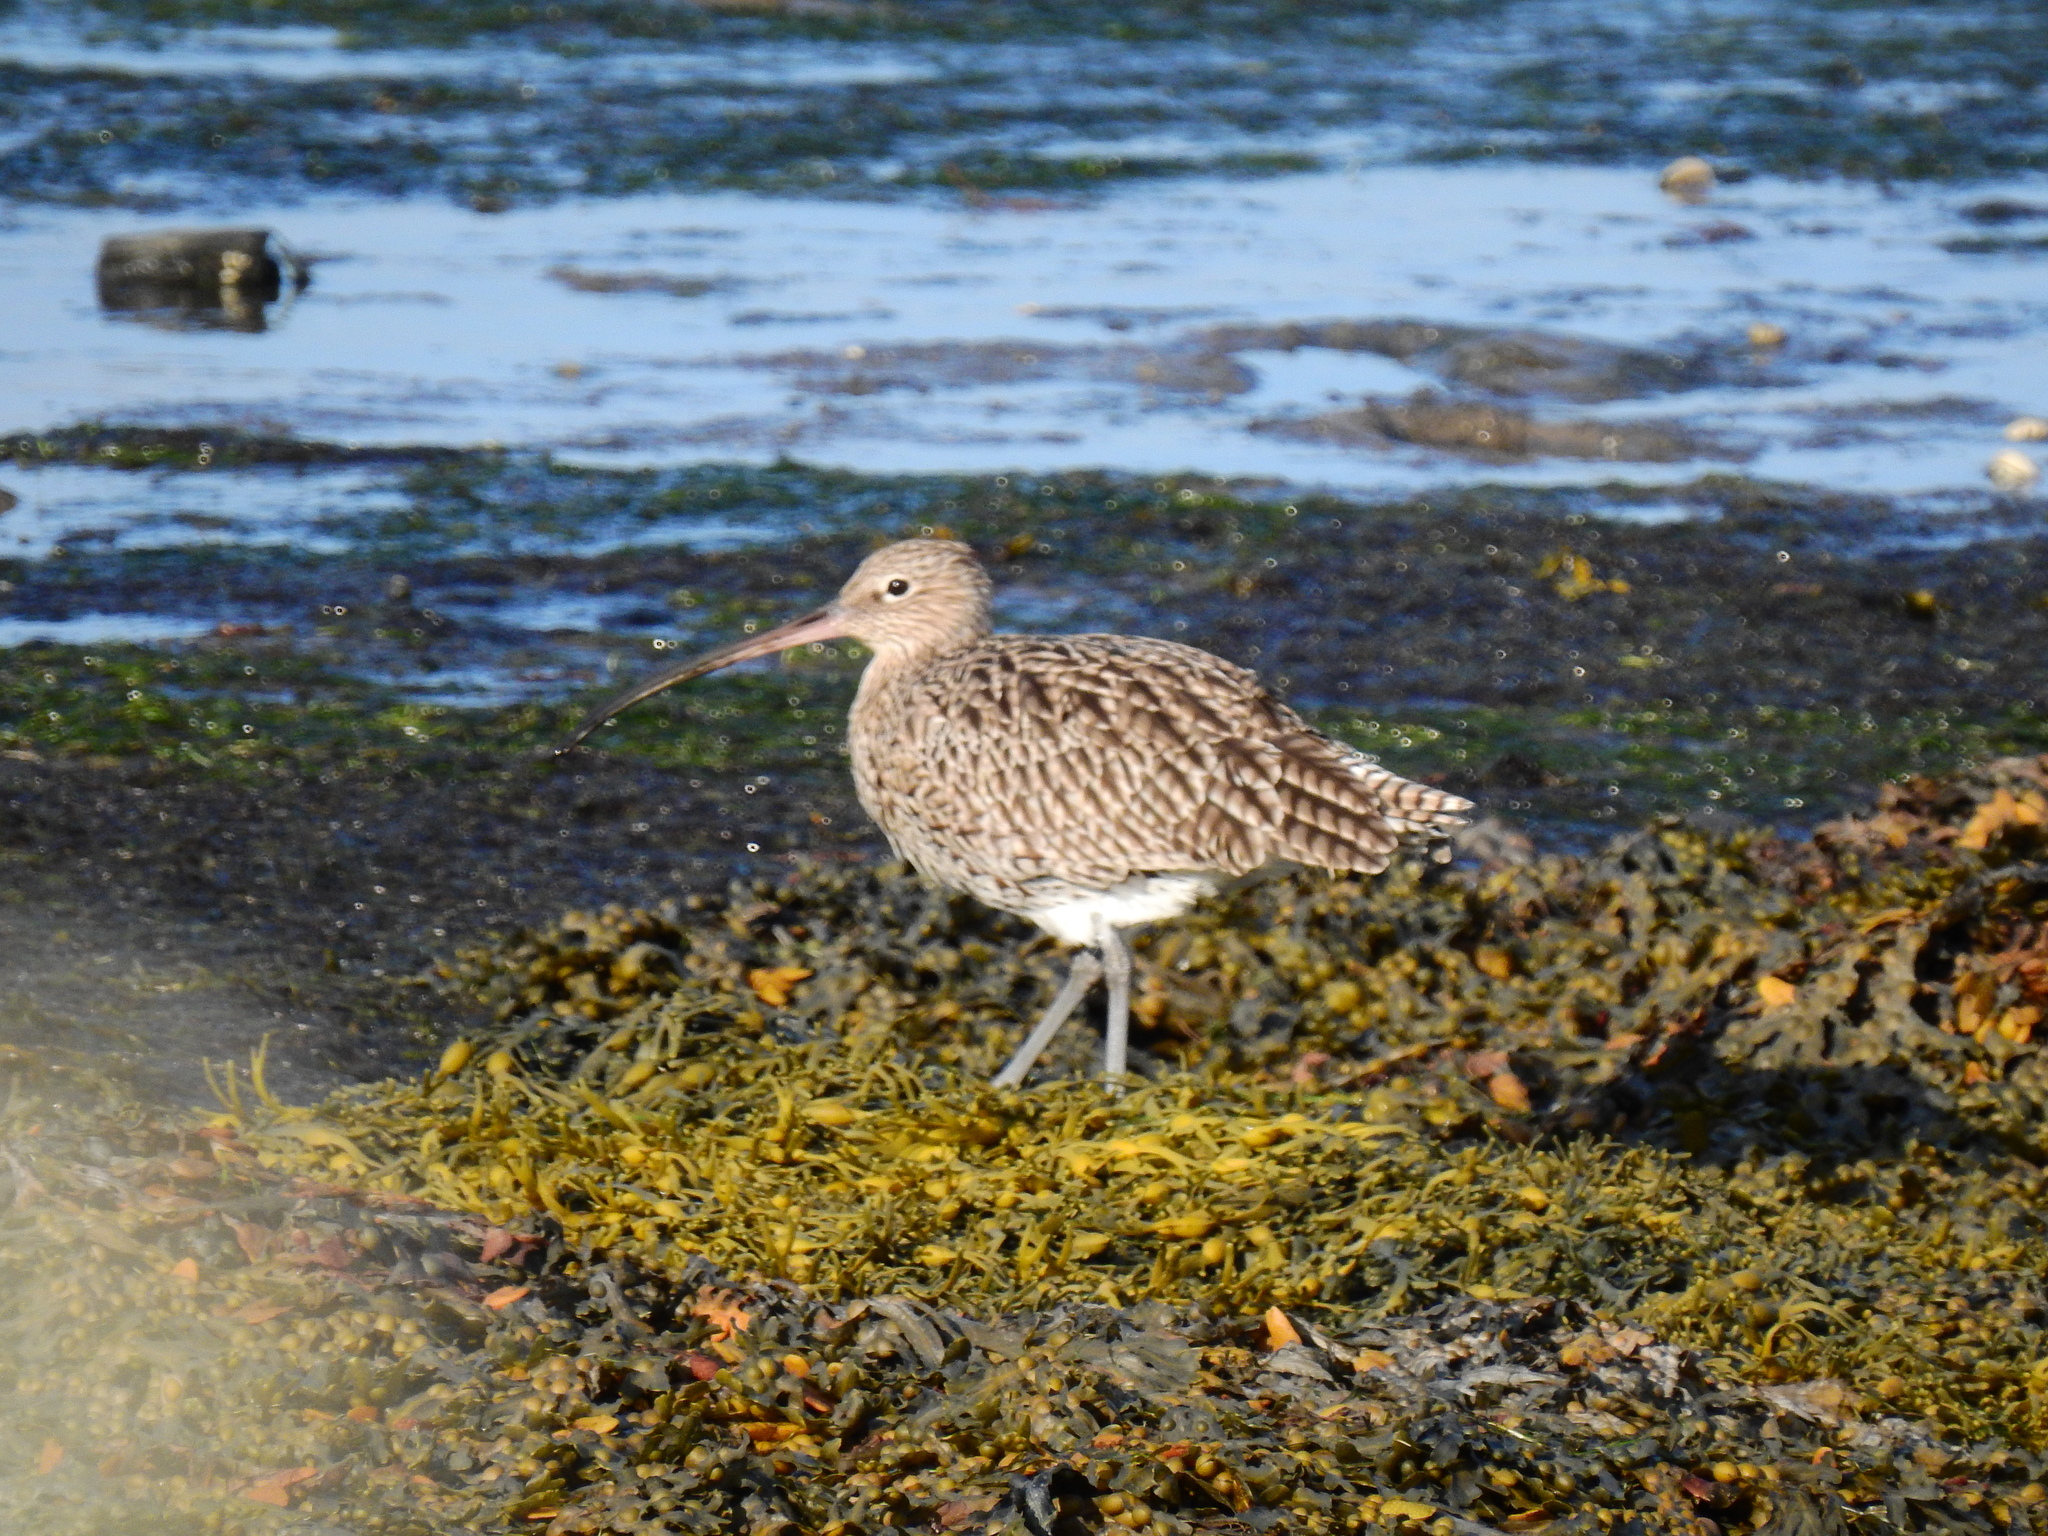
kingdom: Animalia
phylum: Chordata
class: Aves
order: Charadriiformes
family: Scolopacidae
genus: Numenius
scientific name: Numenius arquata
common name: Eurasian curlew
